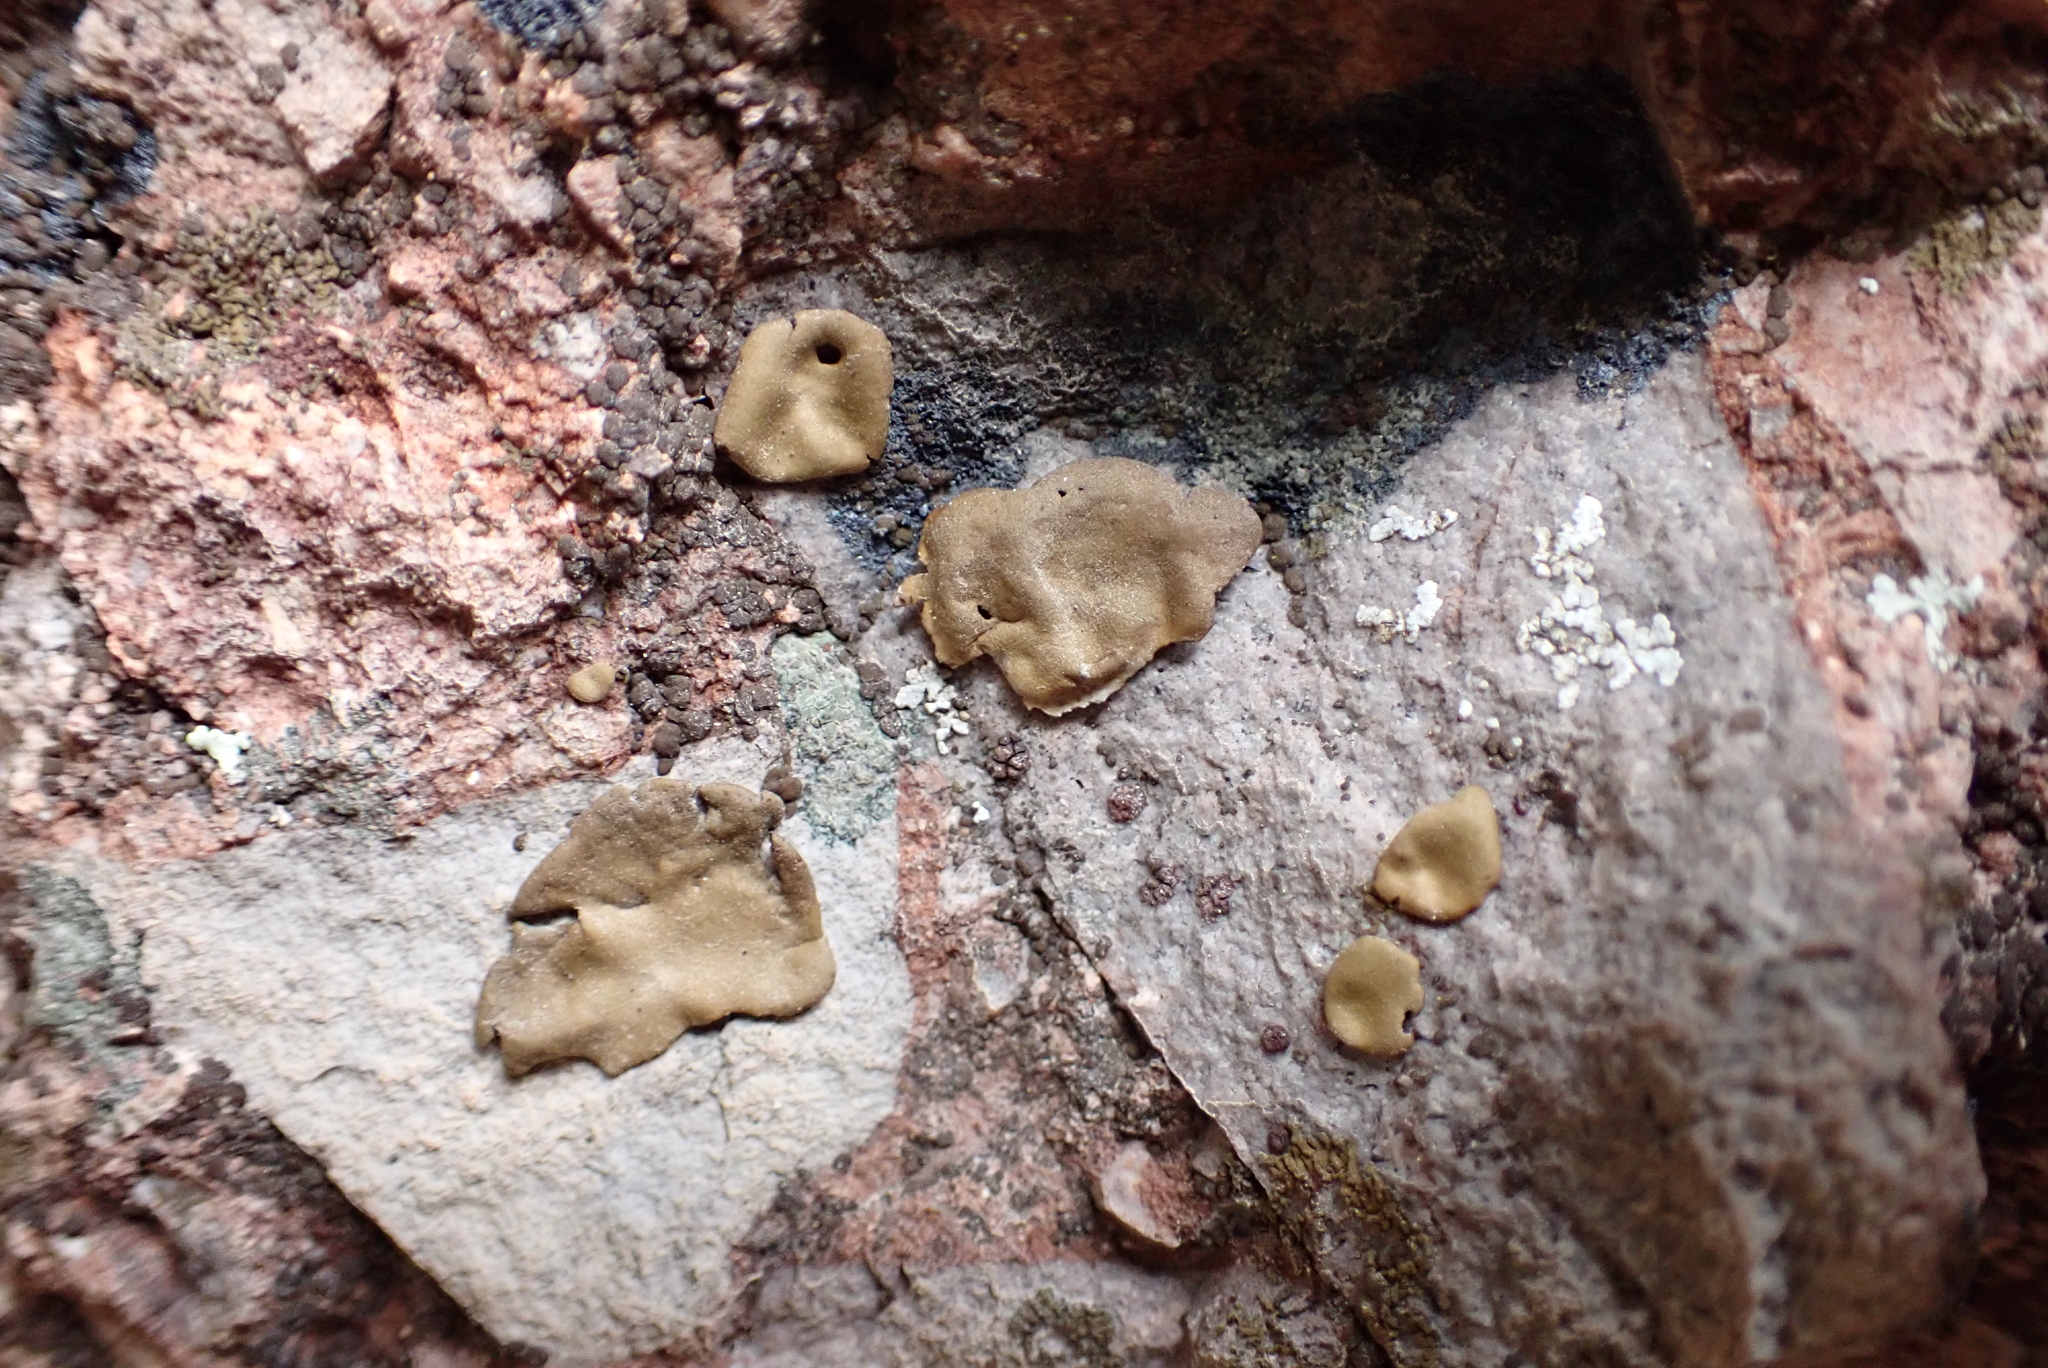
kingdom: Fungi
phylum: Ascomycota
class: Lecanoromycetes
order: Umbilicariales
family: Umbilicariaceae
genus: Umbilicaria
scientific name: Umbilicaria phaea
